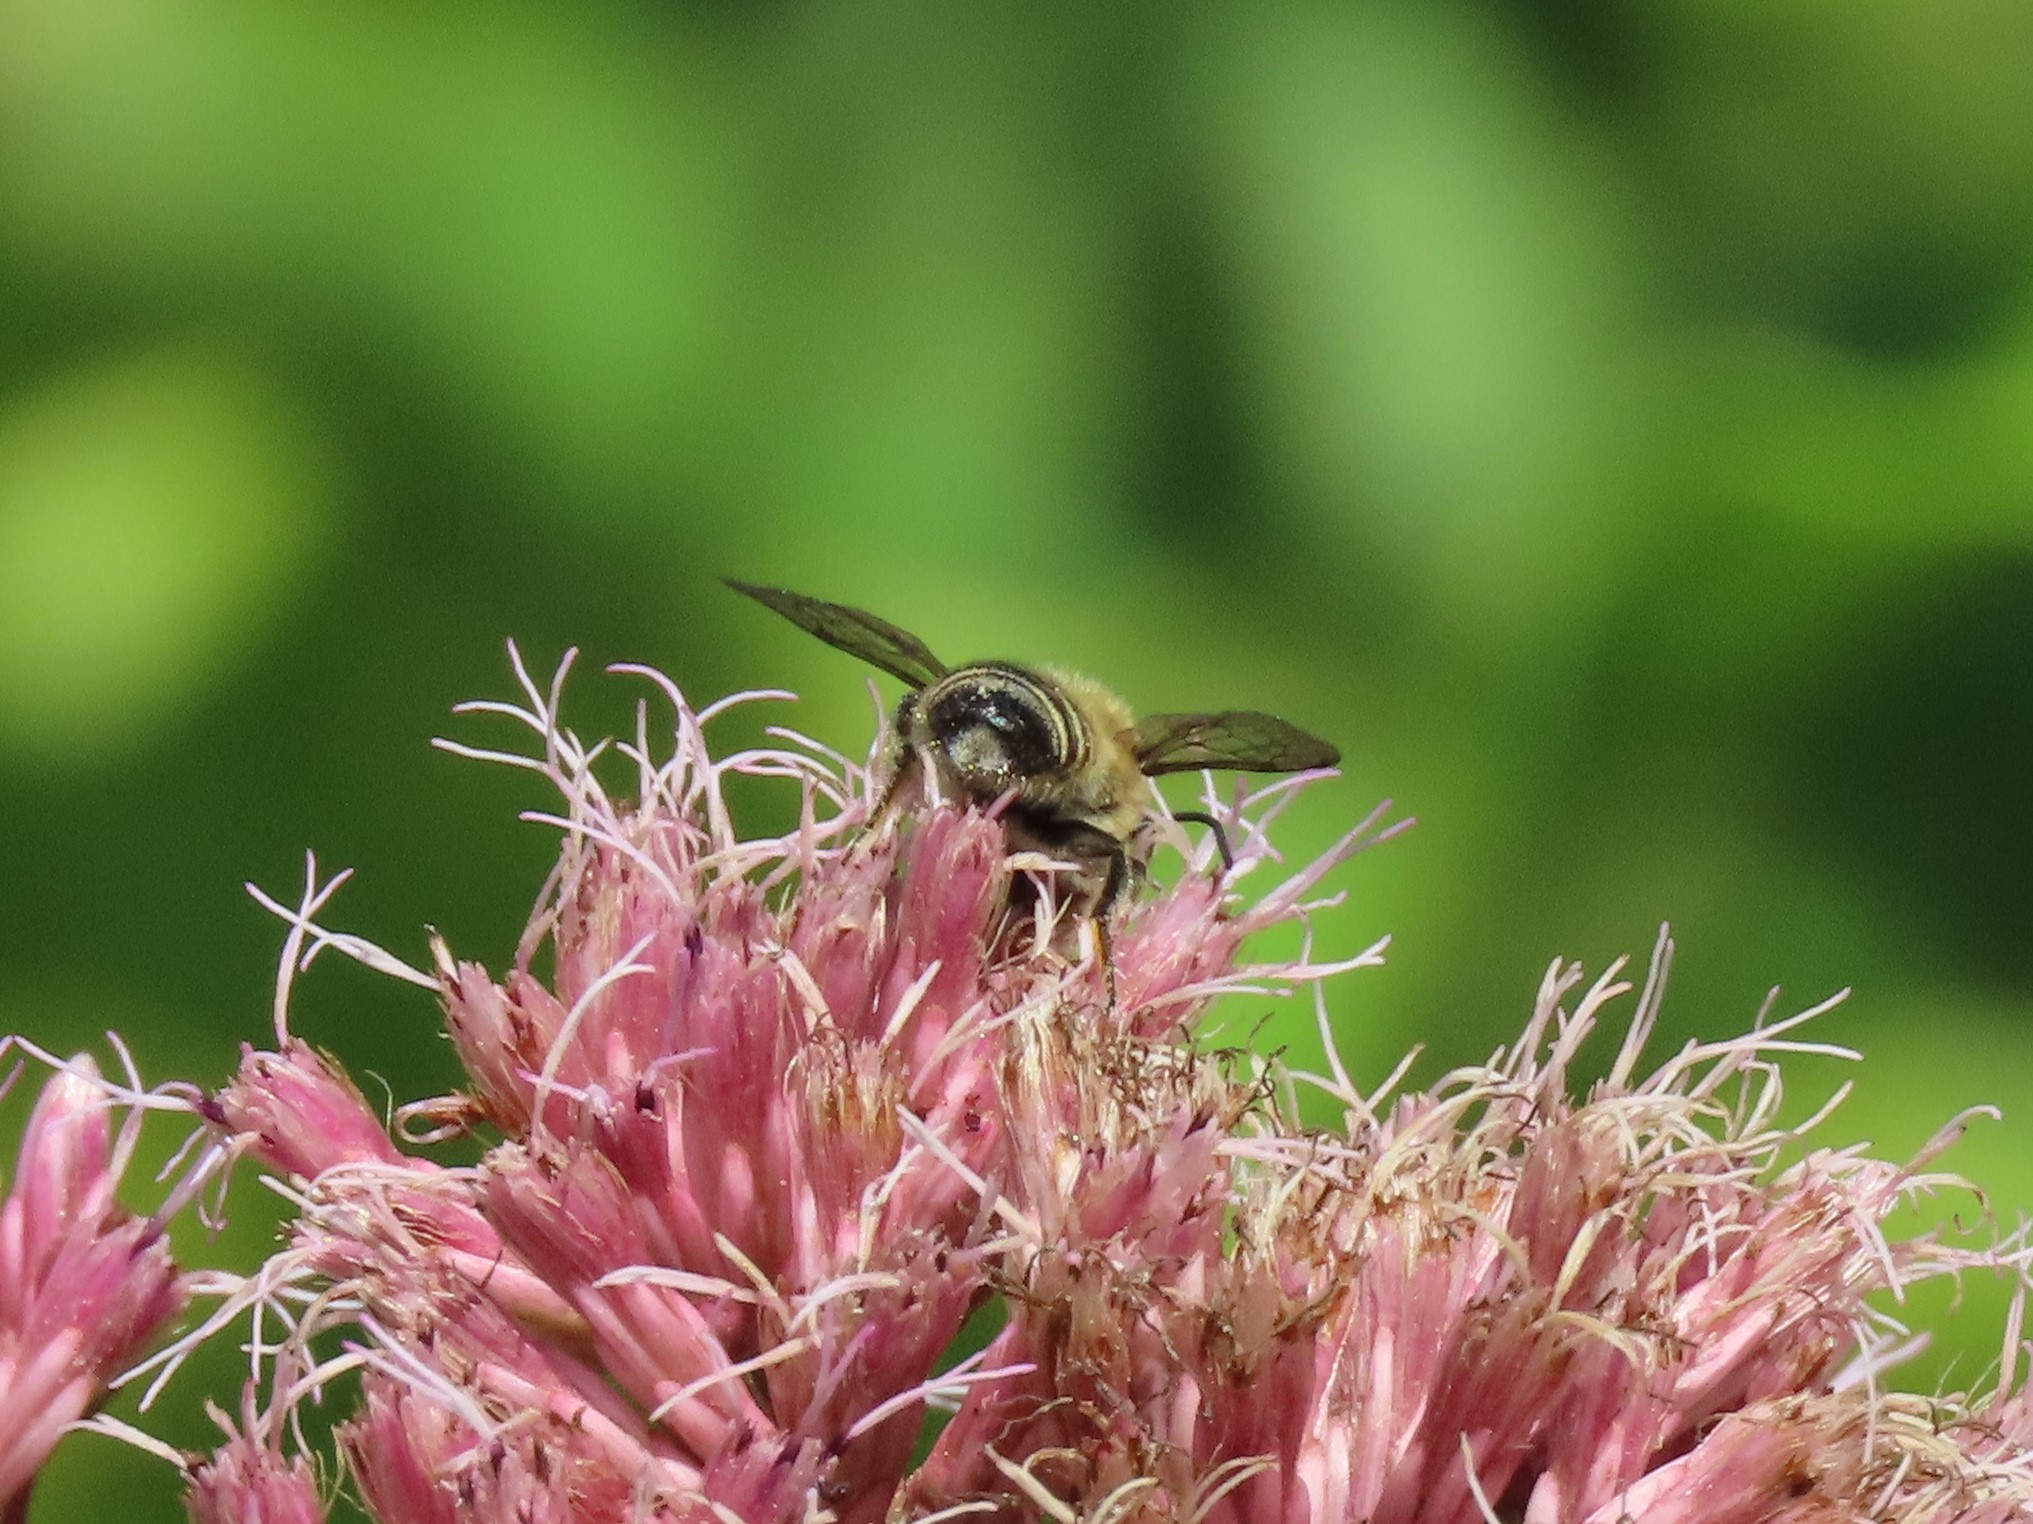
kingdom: Animalia
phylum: Arthropoda
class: Insecta
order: Hymenoptera
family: Megachilidae
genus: Megachile
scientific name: Megachile mendica
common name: Flat-tailed leafcutter
